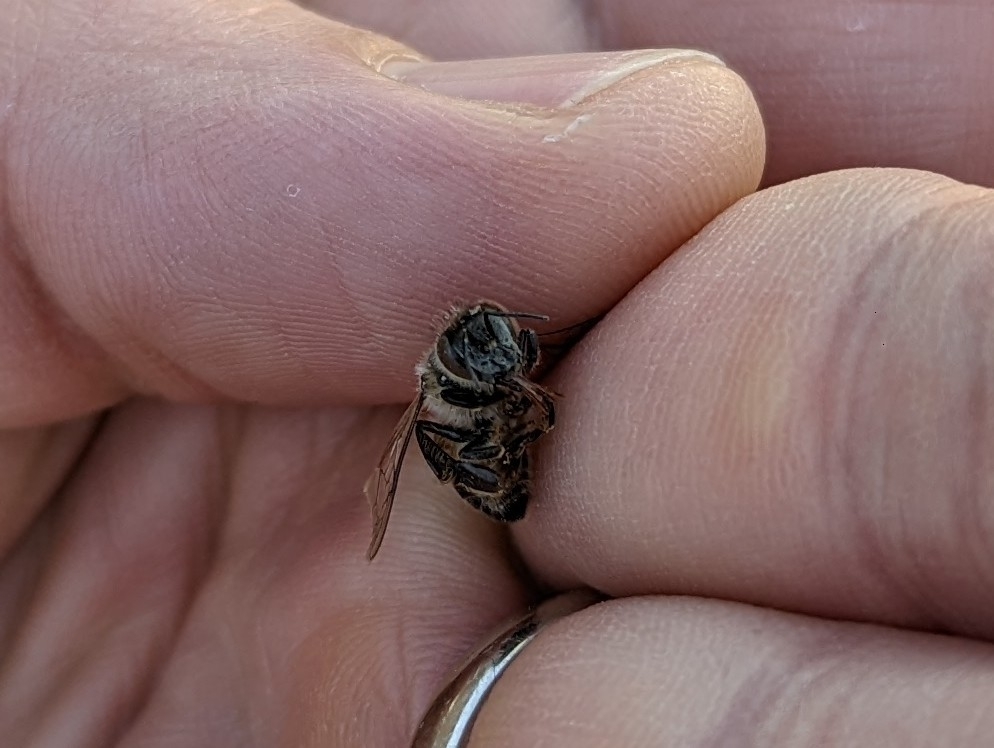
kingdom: Animalia
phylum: Arthropoda
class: Insecta
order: Hymenoptera
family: Apidae
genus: Apis
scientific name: Apis mellifera
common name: Honey bee
